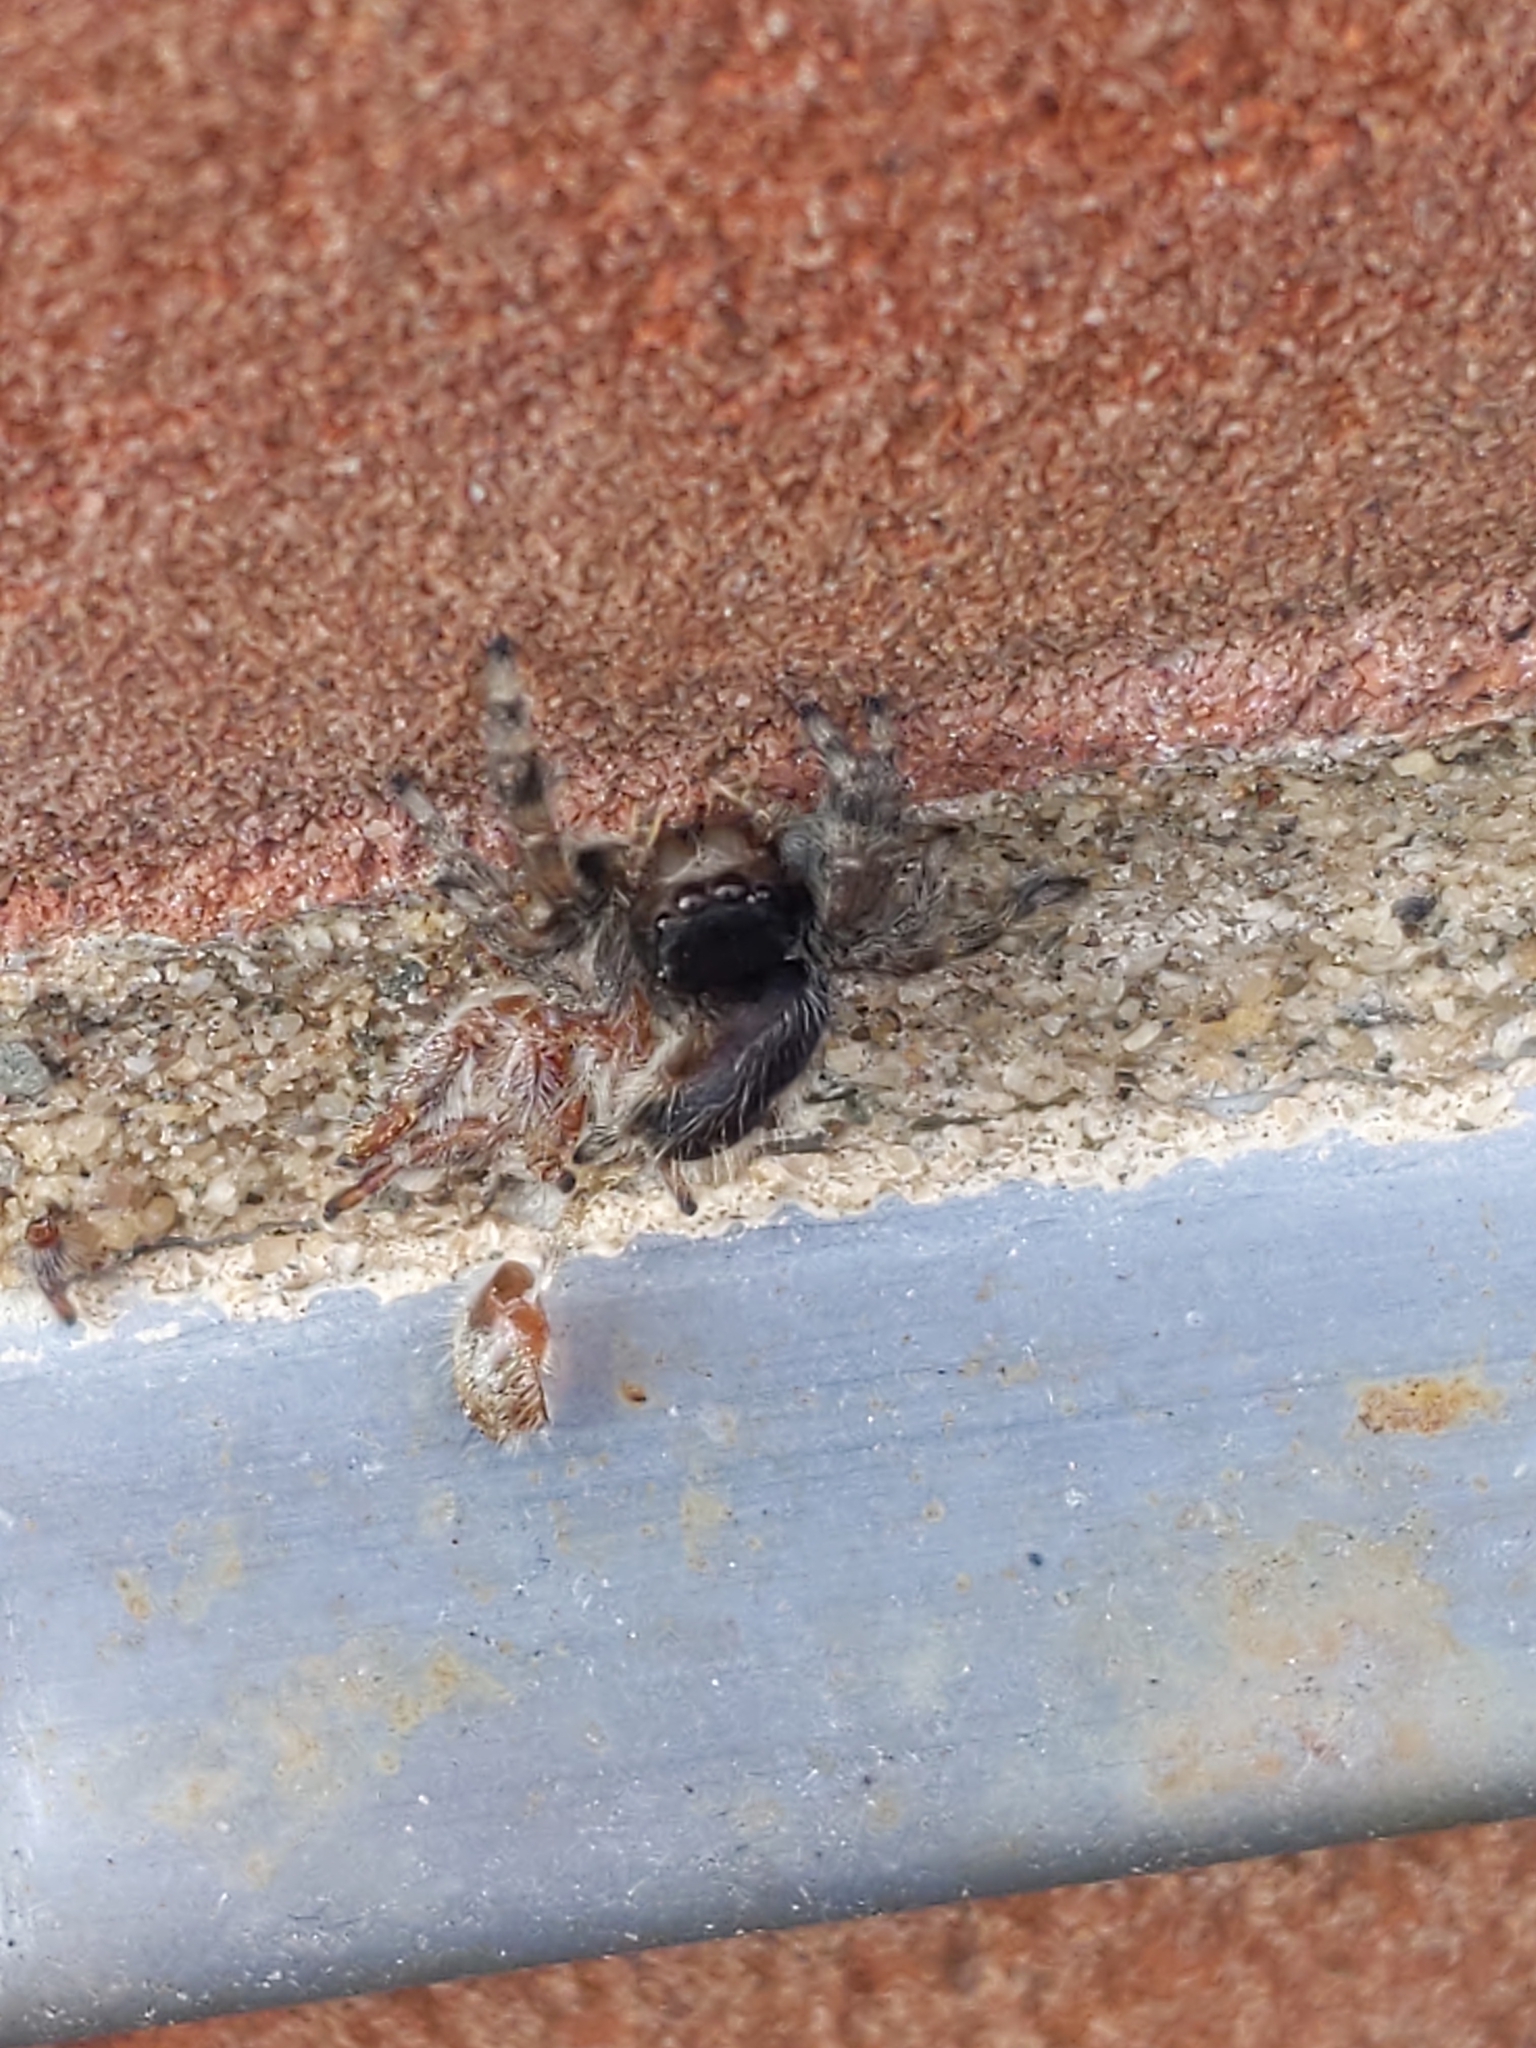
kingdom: Animalia
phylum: Arthropoda
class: Arachnida
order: Araneae
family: Salticidae
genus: Phidippus
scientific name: Phidippus audax
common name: Bold jumper
